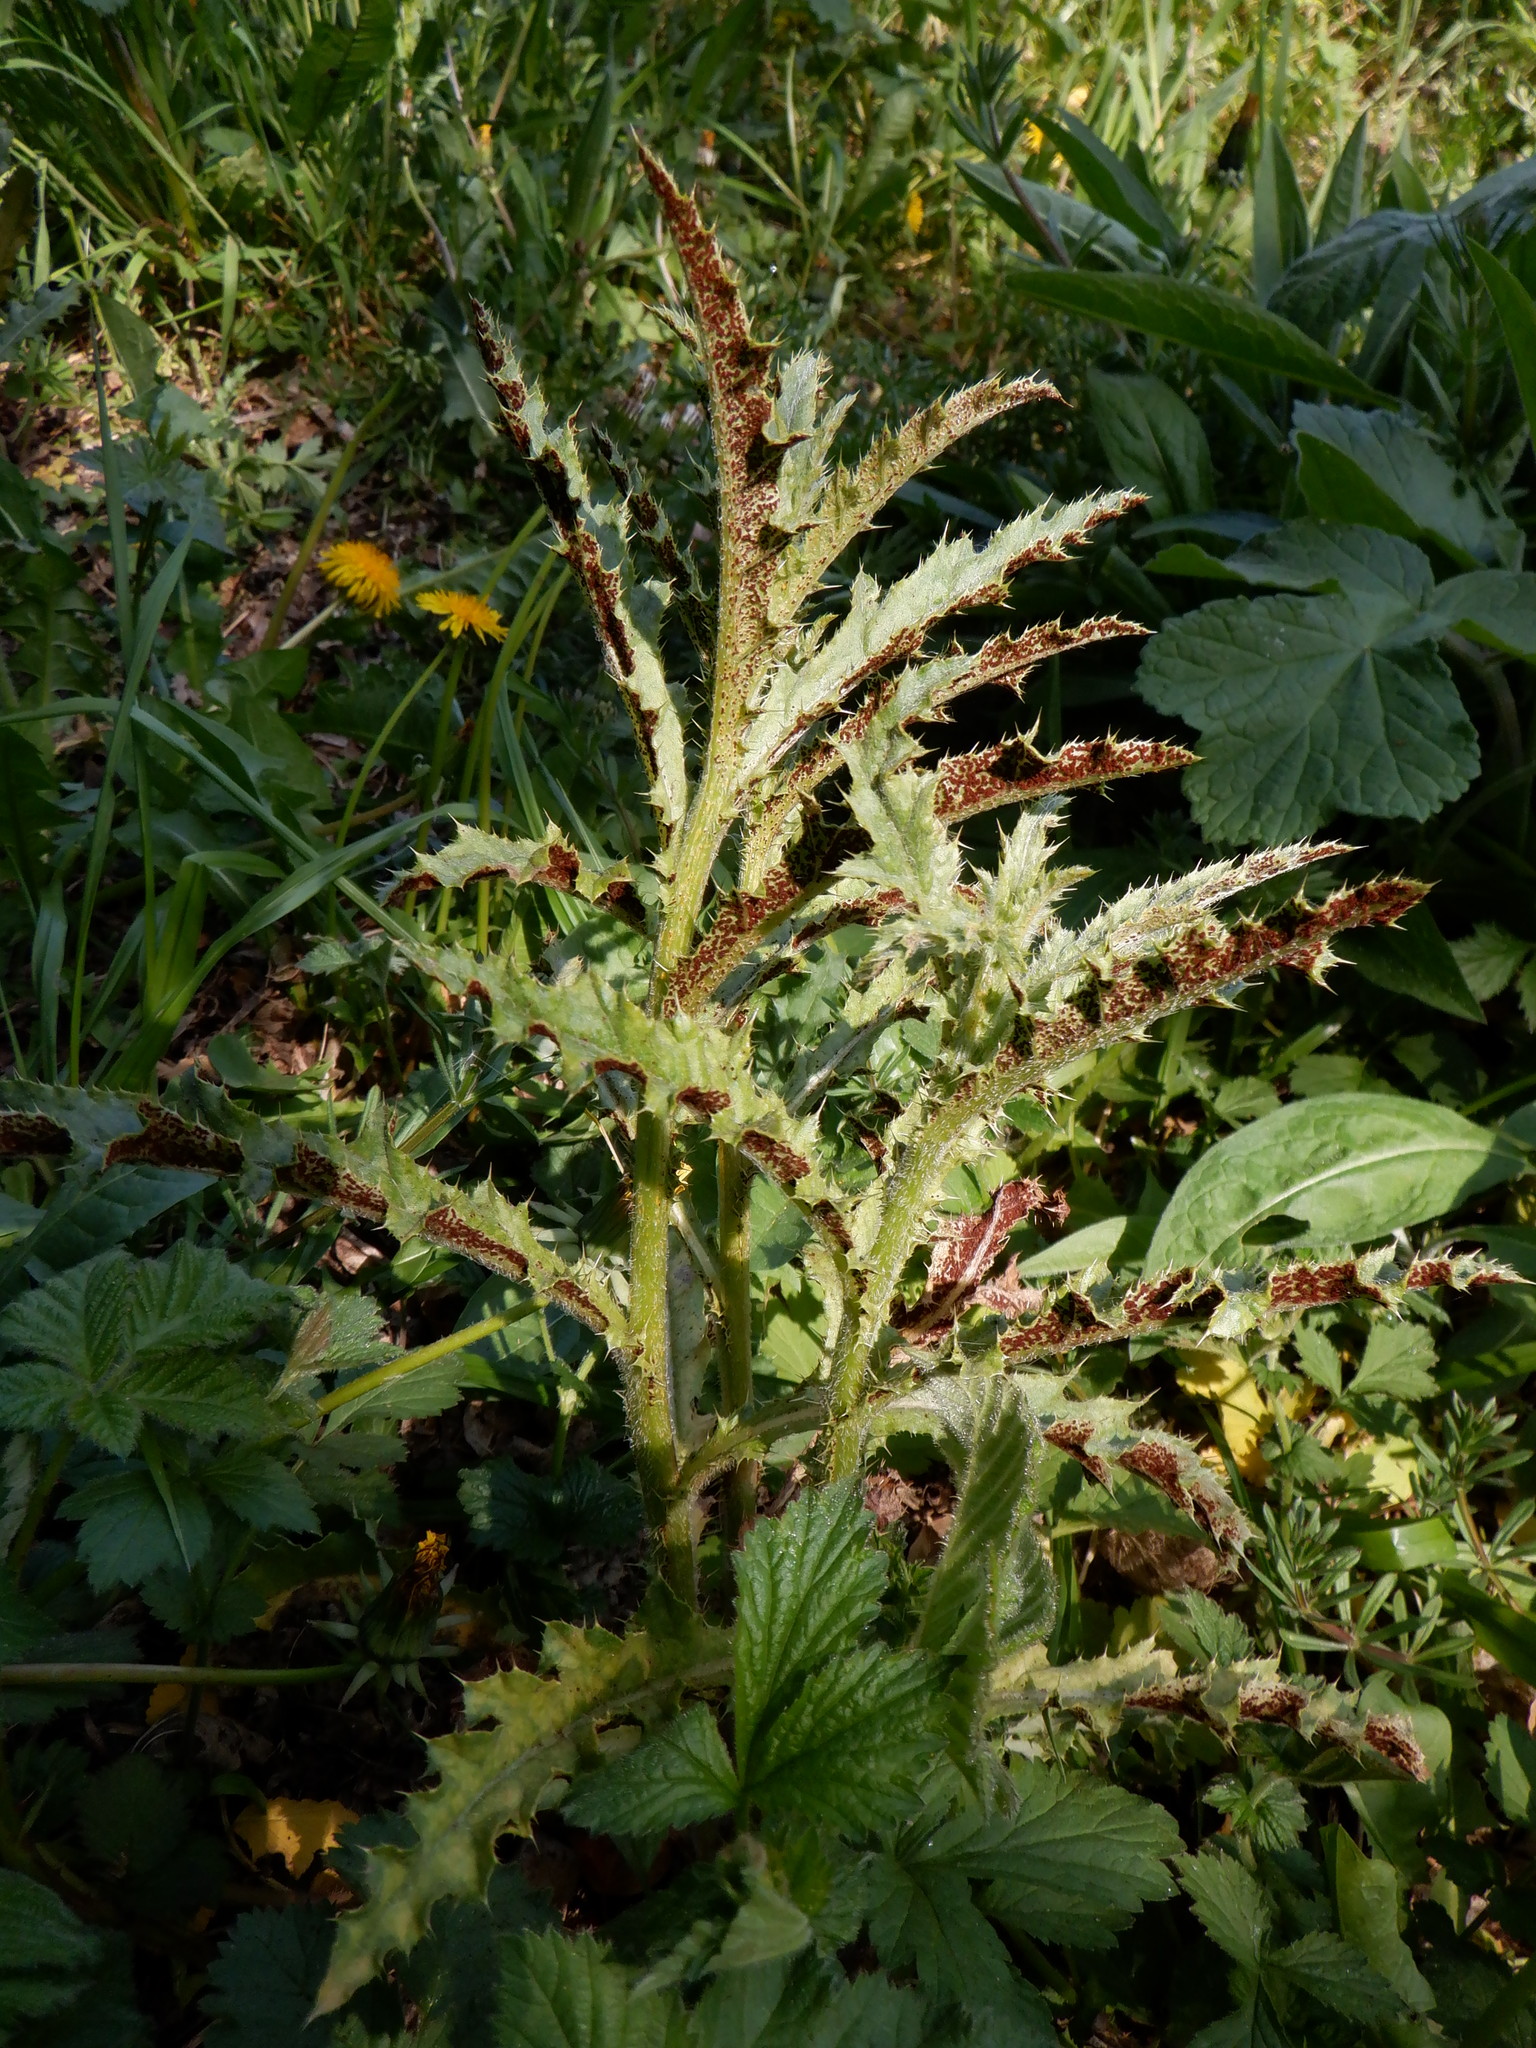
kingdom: Fungi
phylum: Basidiomycota
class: Pucciniomycetes
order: Pucciniales
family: Pucciniaceae
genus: Puccinia
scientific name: Puccinia suaveolens
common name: Thistle rust
